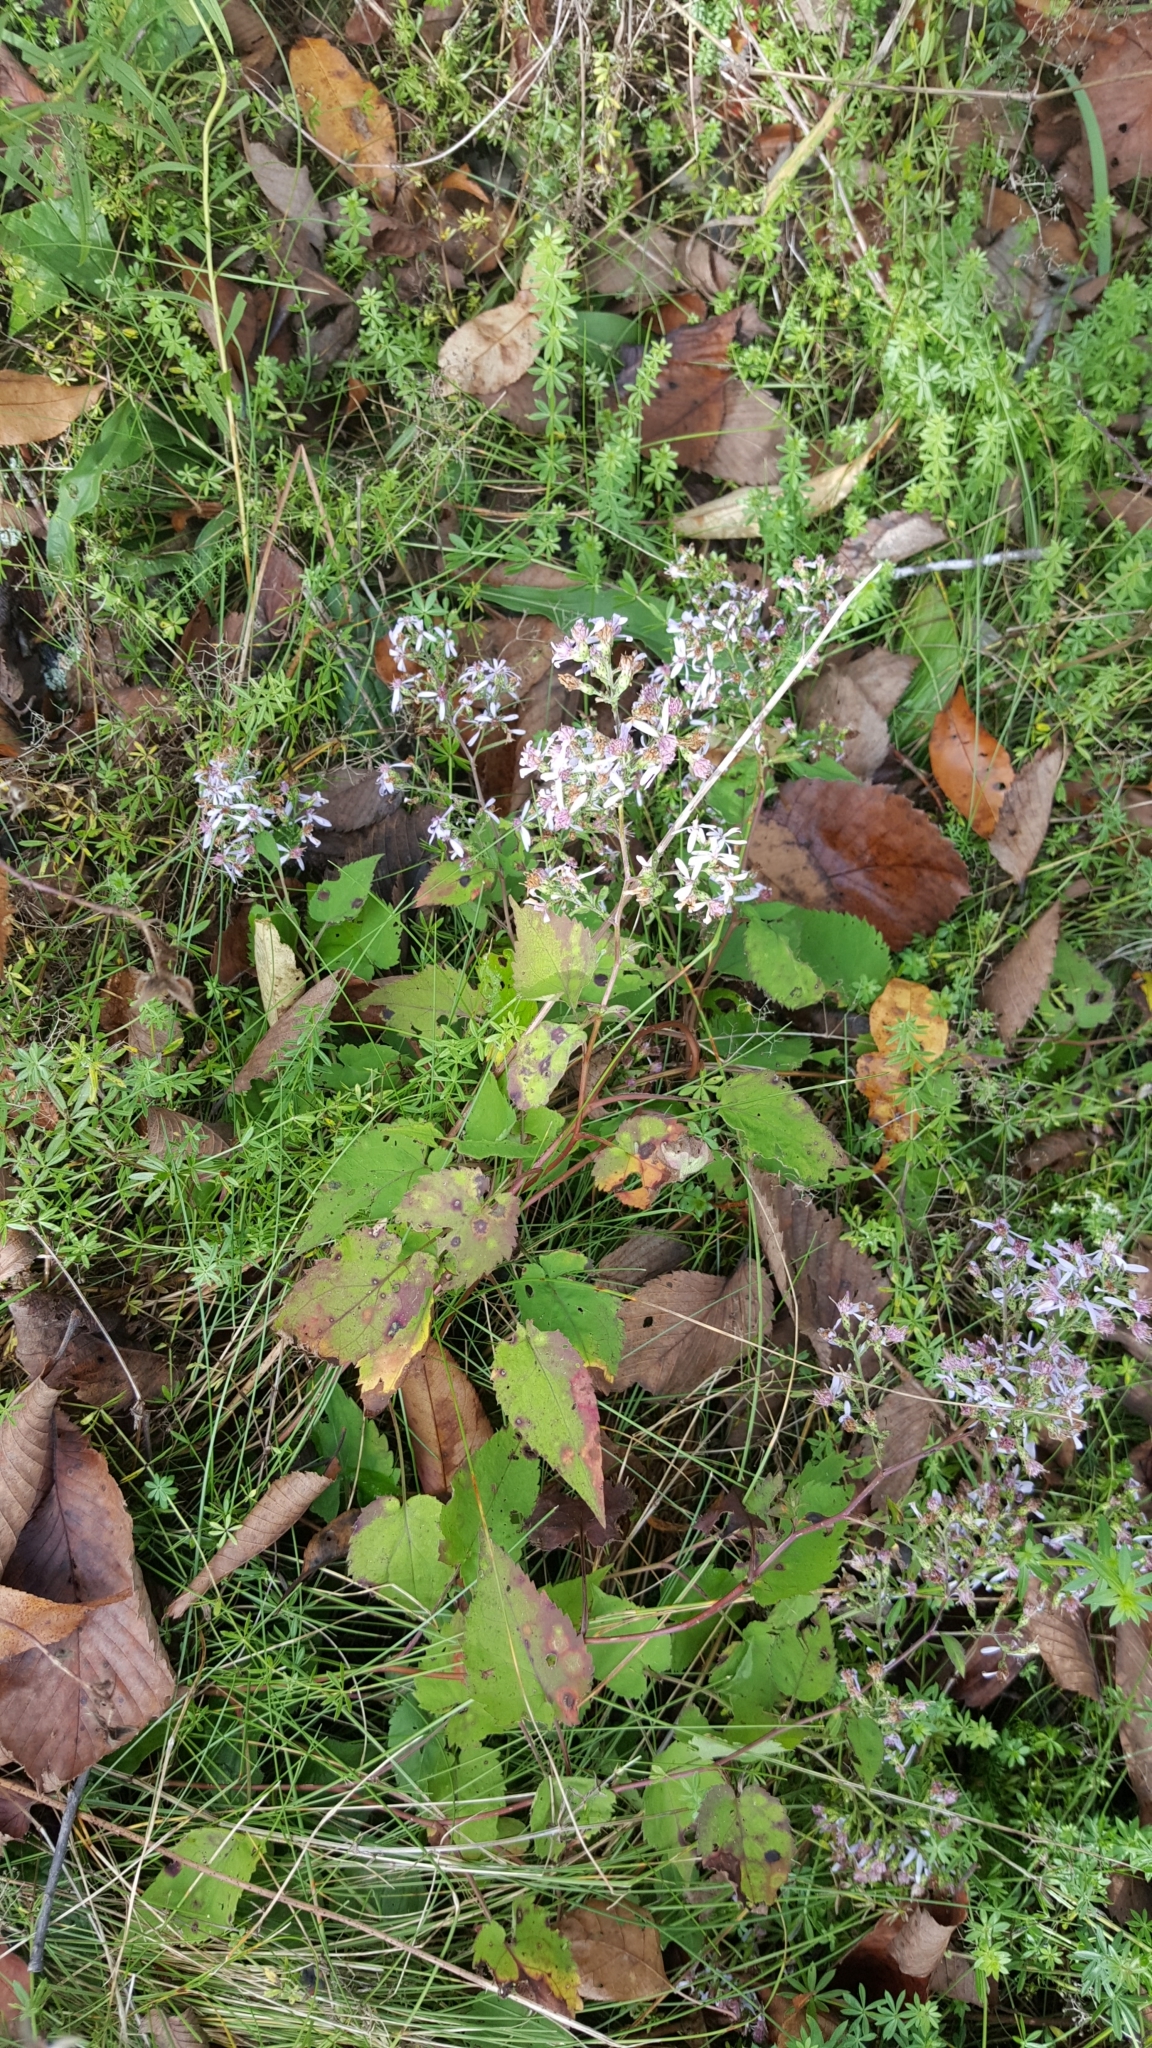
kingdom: Plantae
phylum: Tracheophyta
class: Magnoliopsida
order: Asterales
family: Asteraceae
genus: Symphyotrichum
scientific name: Symphyotrichum cordifolium
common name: Beeweed
